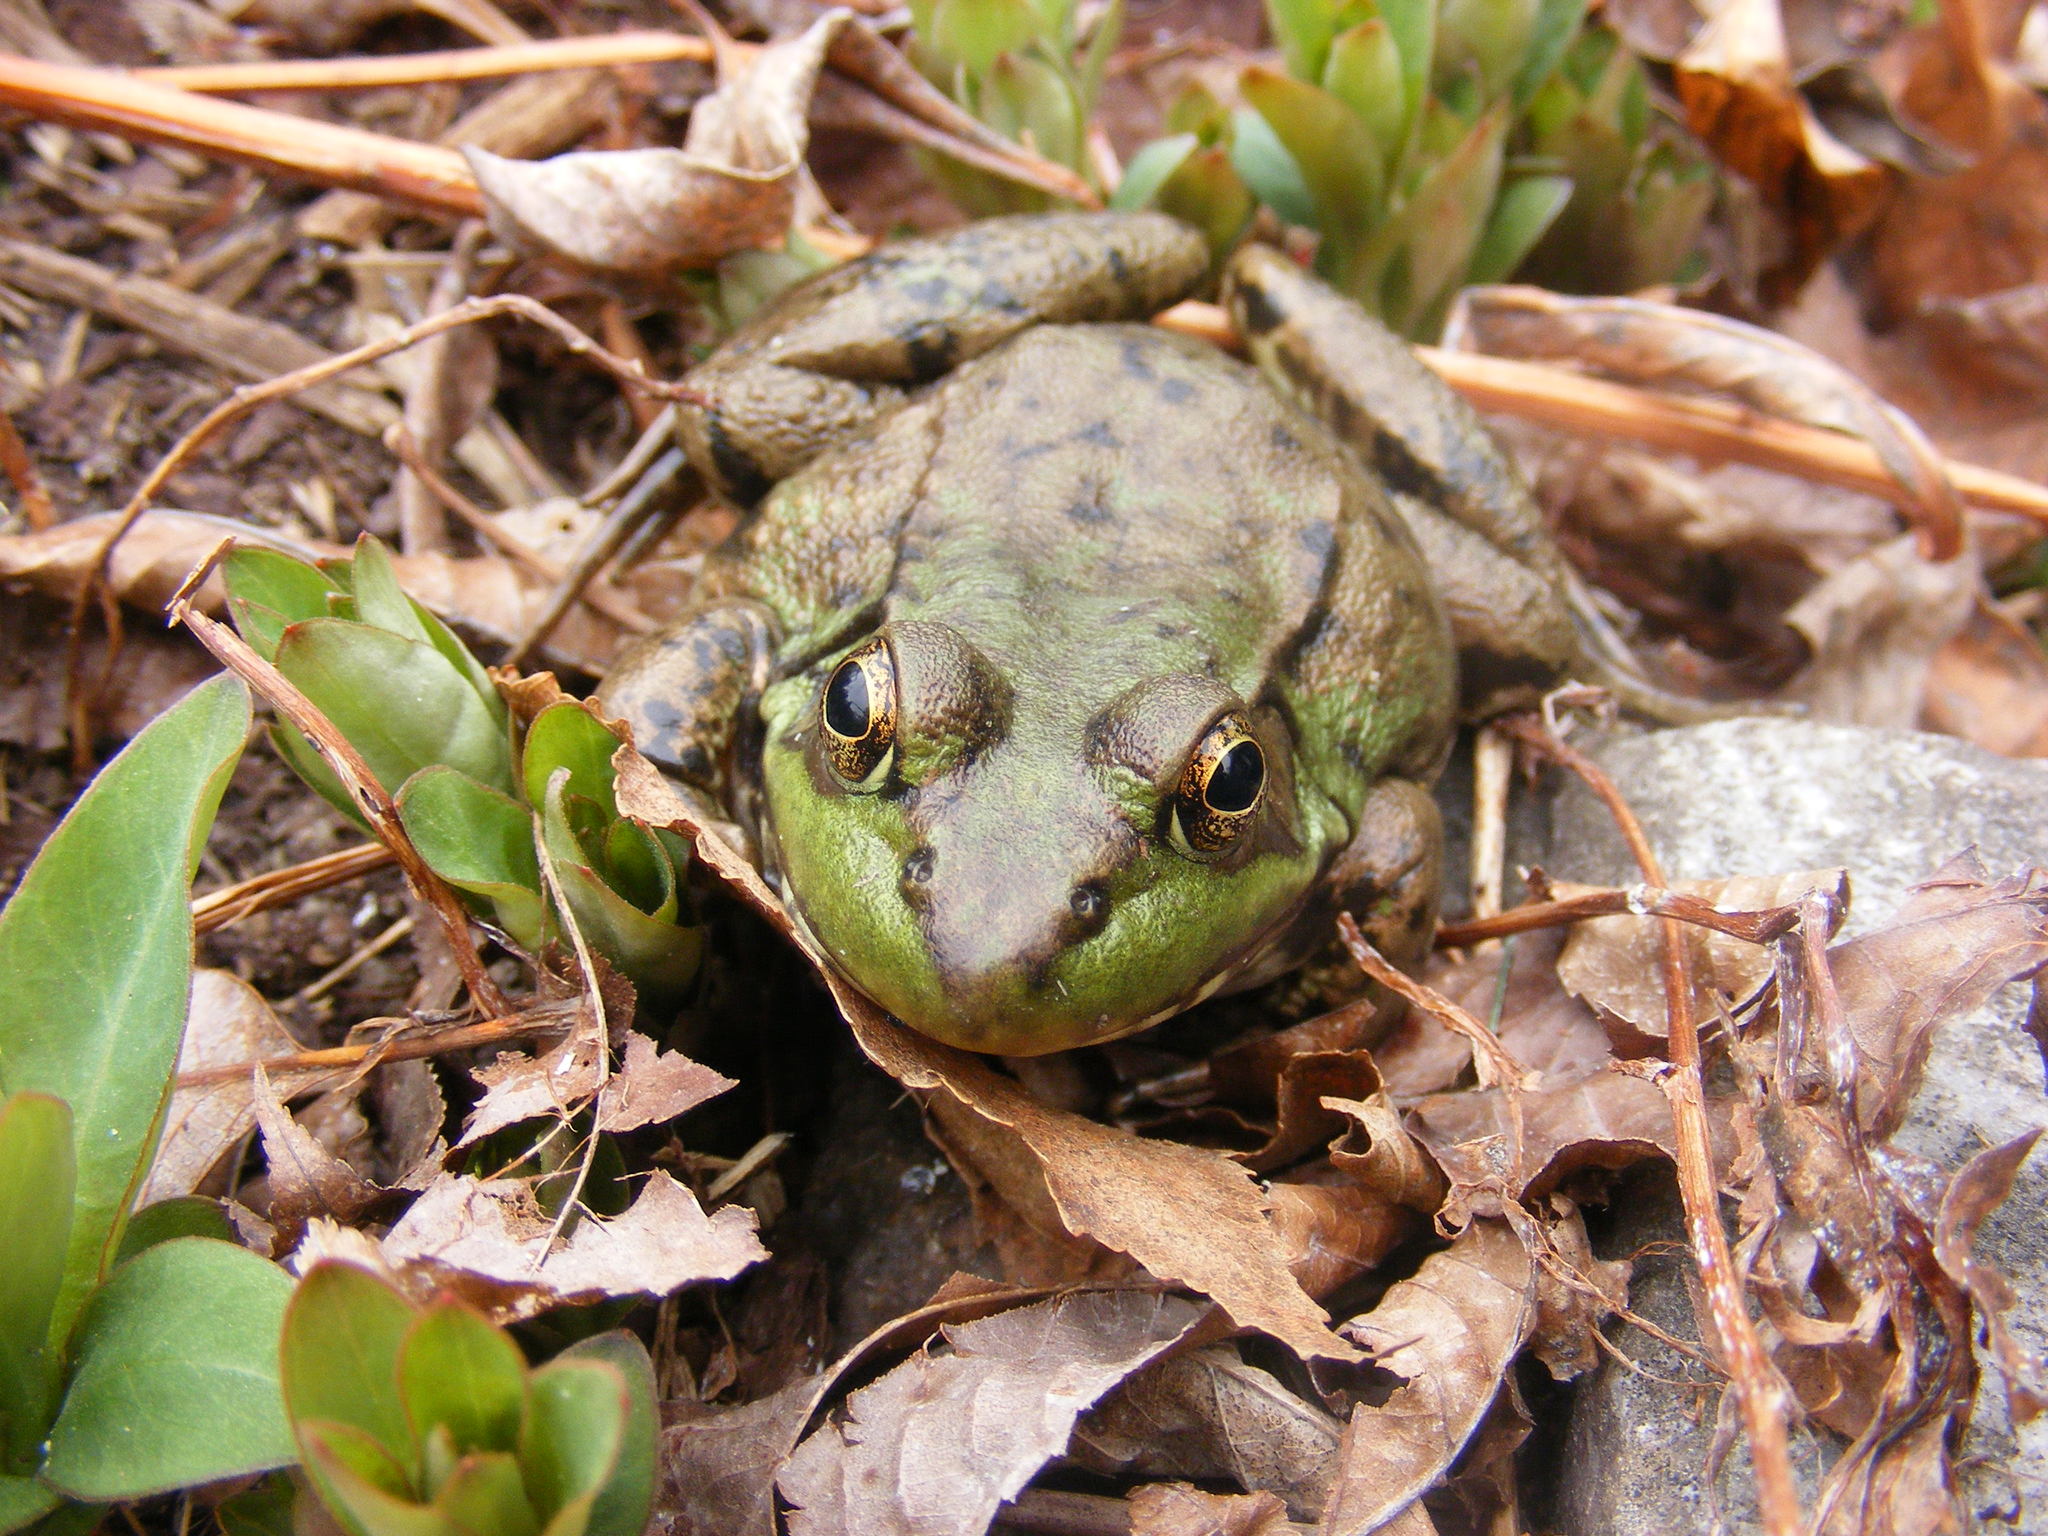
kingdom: Animalia
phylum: Chordata
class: Amphibia
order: Anura
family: Ranidae
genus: Lithobates
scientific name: Lithobates clamitans
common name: Green frog
